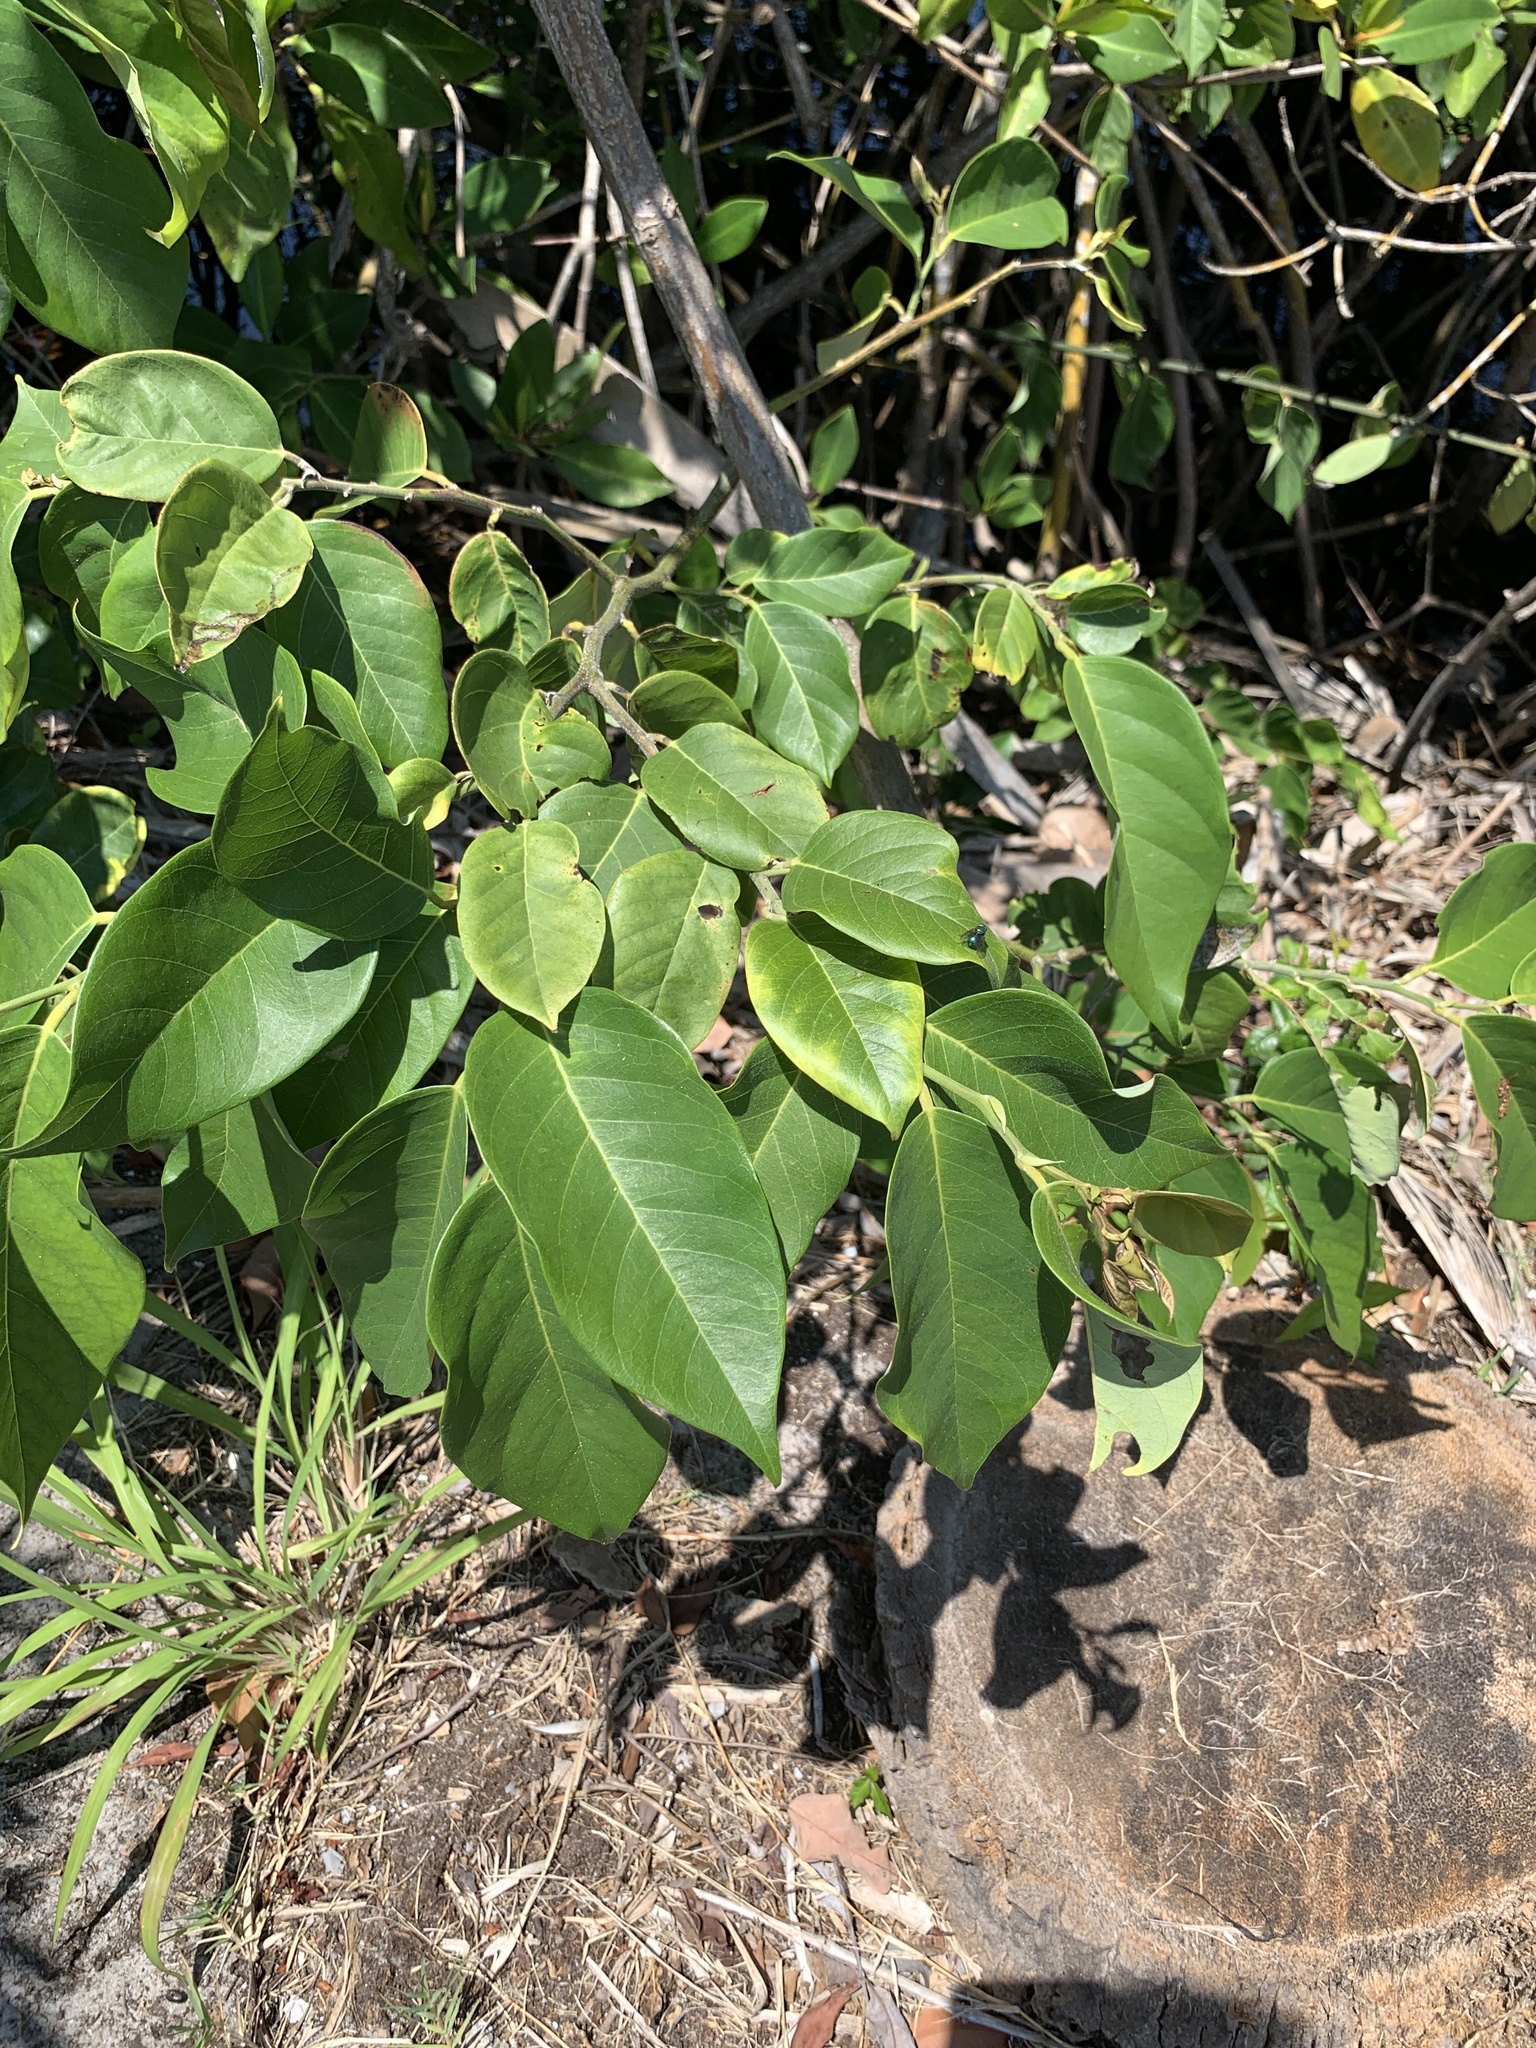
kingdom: Plantae
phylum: Tracheophyta
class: Magnoliopsida
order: Fabales
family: Fabaceae
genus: Dalbergia
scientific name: Dalbergia ecastaphyllum
